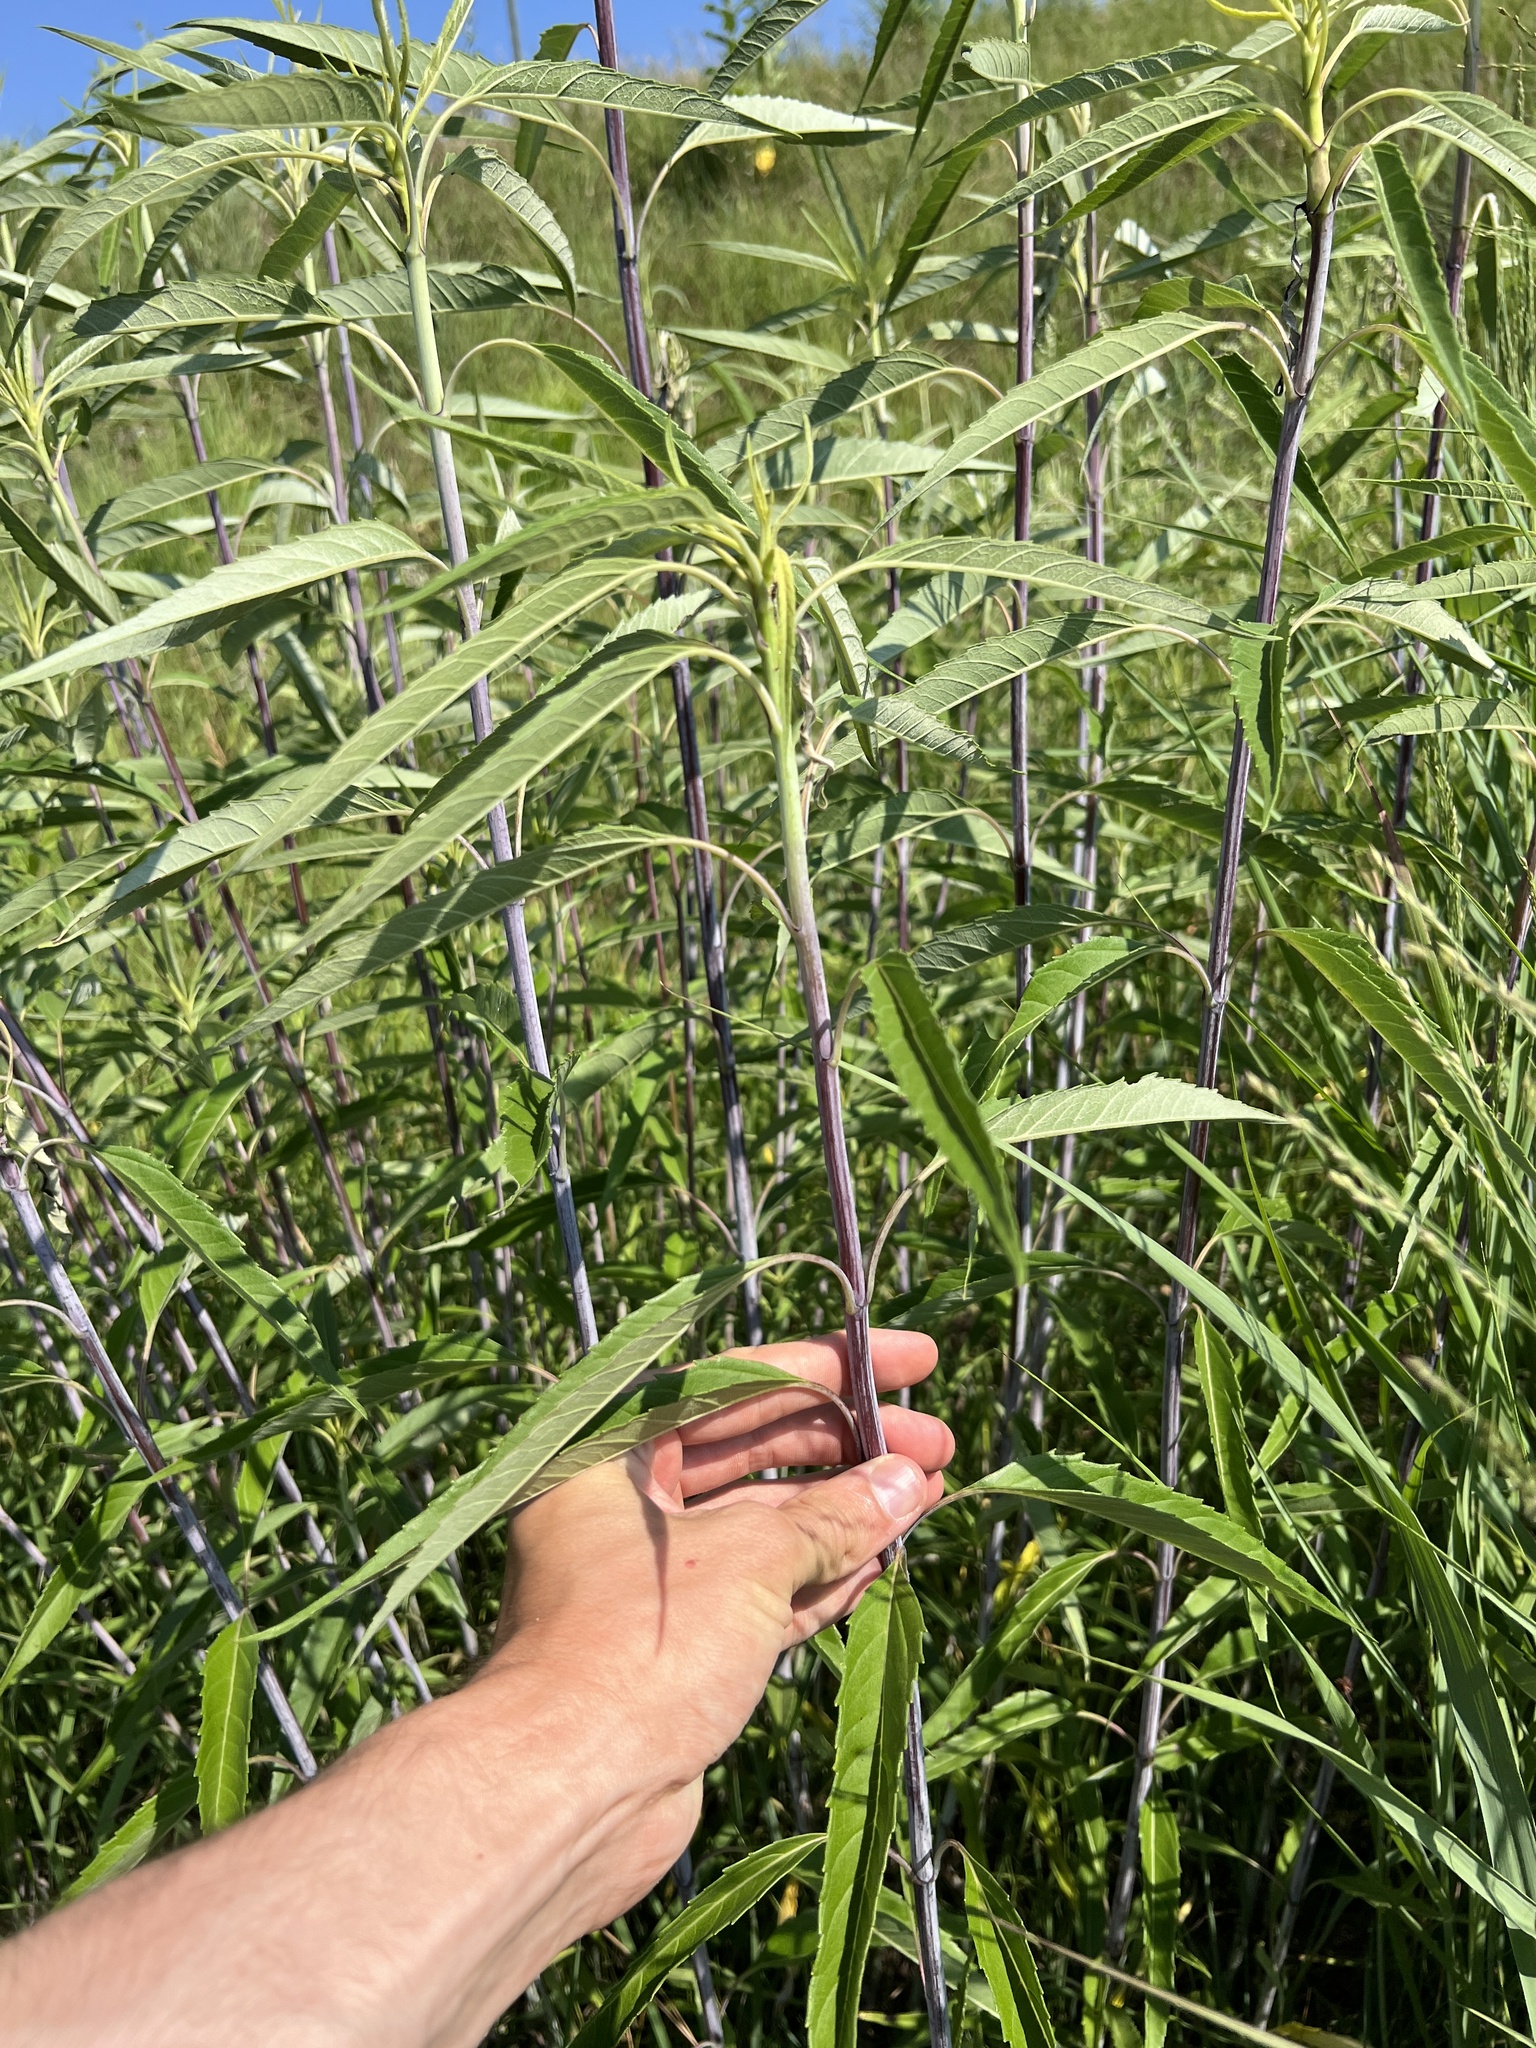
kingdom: Plantae
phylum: Tracheophyta
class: Magnoliopsida
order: Asterales
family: Asteraceae
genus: Helianthus
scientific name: Helianthus grosseserratus
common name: Sawtooth sunflower
